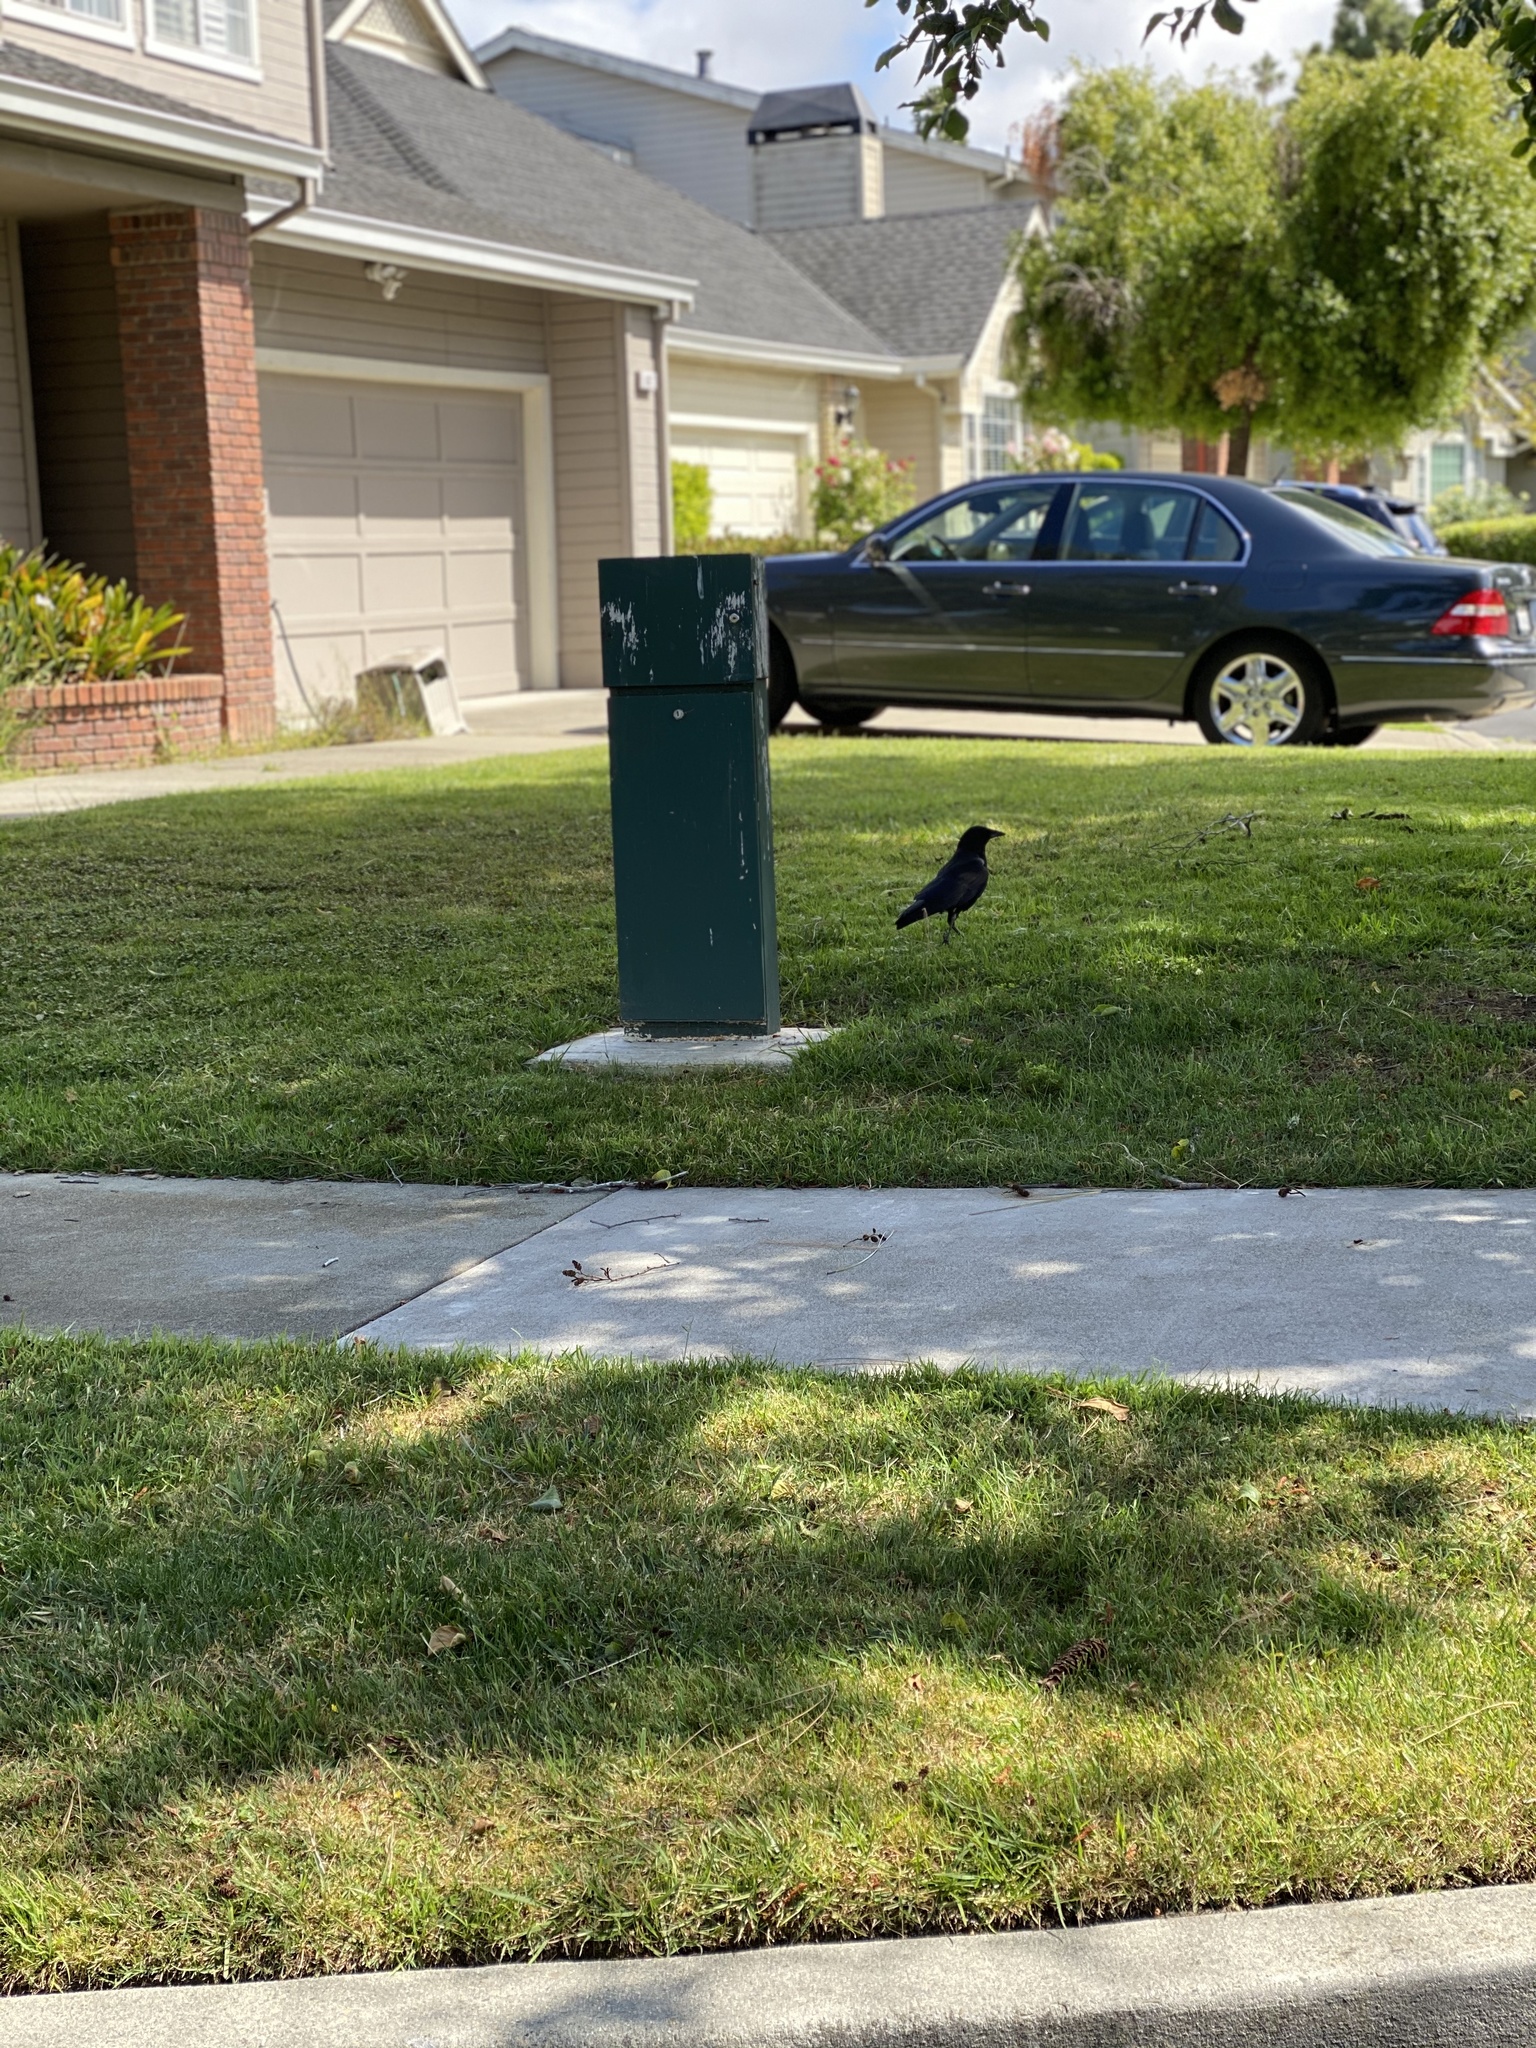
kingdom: Animalia
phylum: Chordata
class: Aves
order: Passeriformes
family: Corvidae
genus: Corvus
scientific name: Corvus brachyrhynchos
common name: American crow
